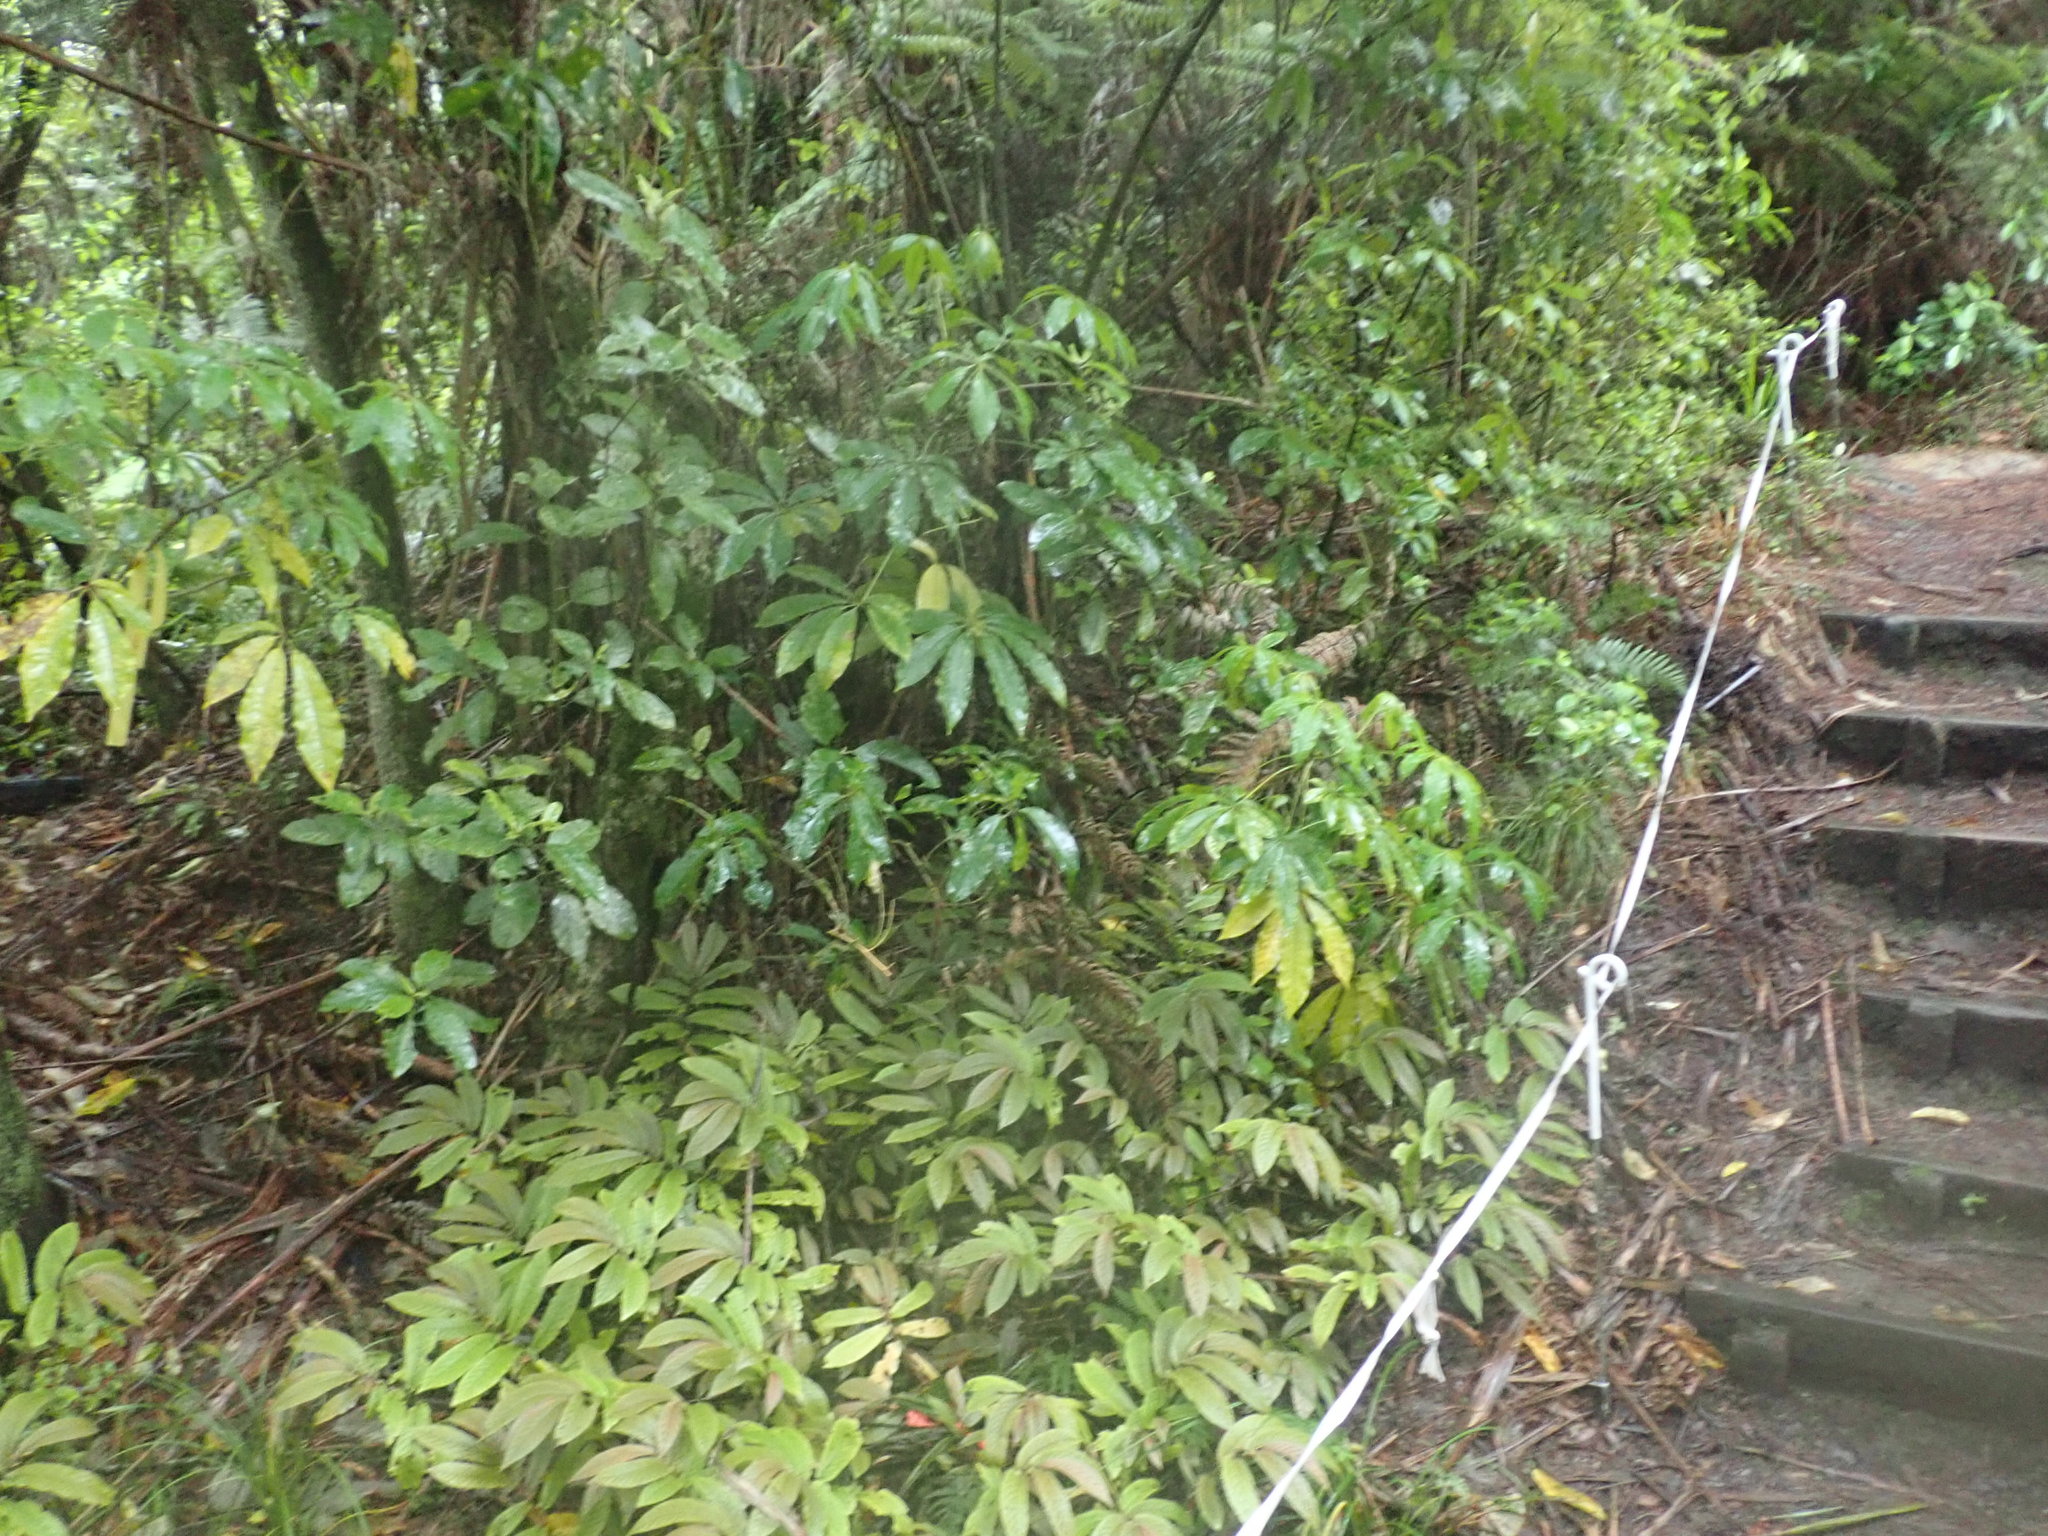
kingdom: Plantae
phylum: Tracheophyta
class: Magnoliopsida
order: Apiales
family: Araliaceae
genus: Schefflera
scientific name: Schefflera digitata
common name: Pate
